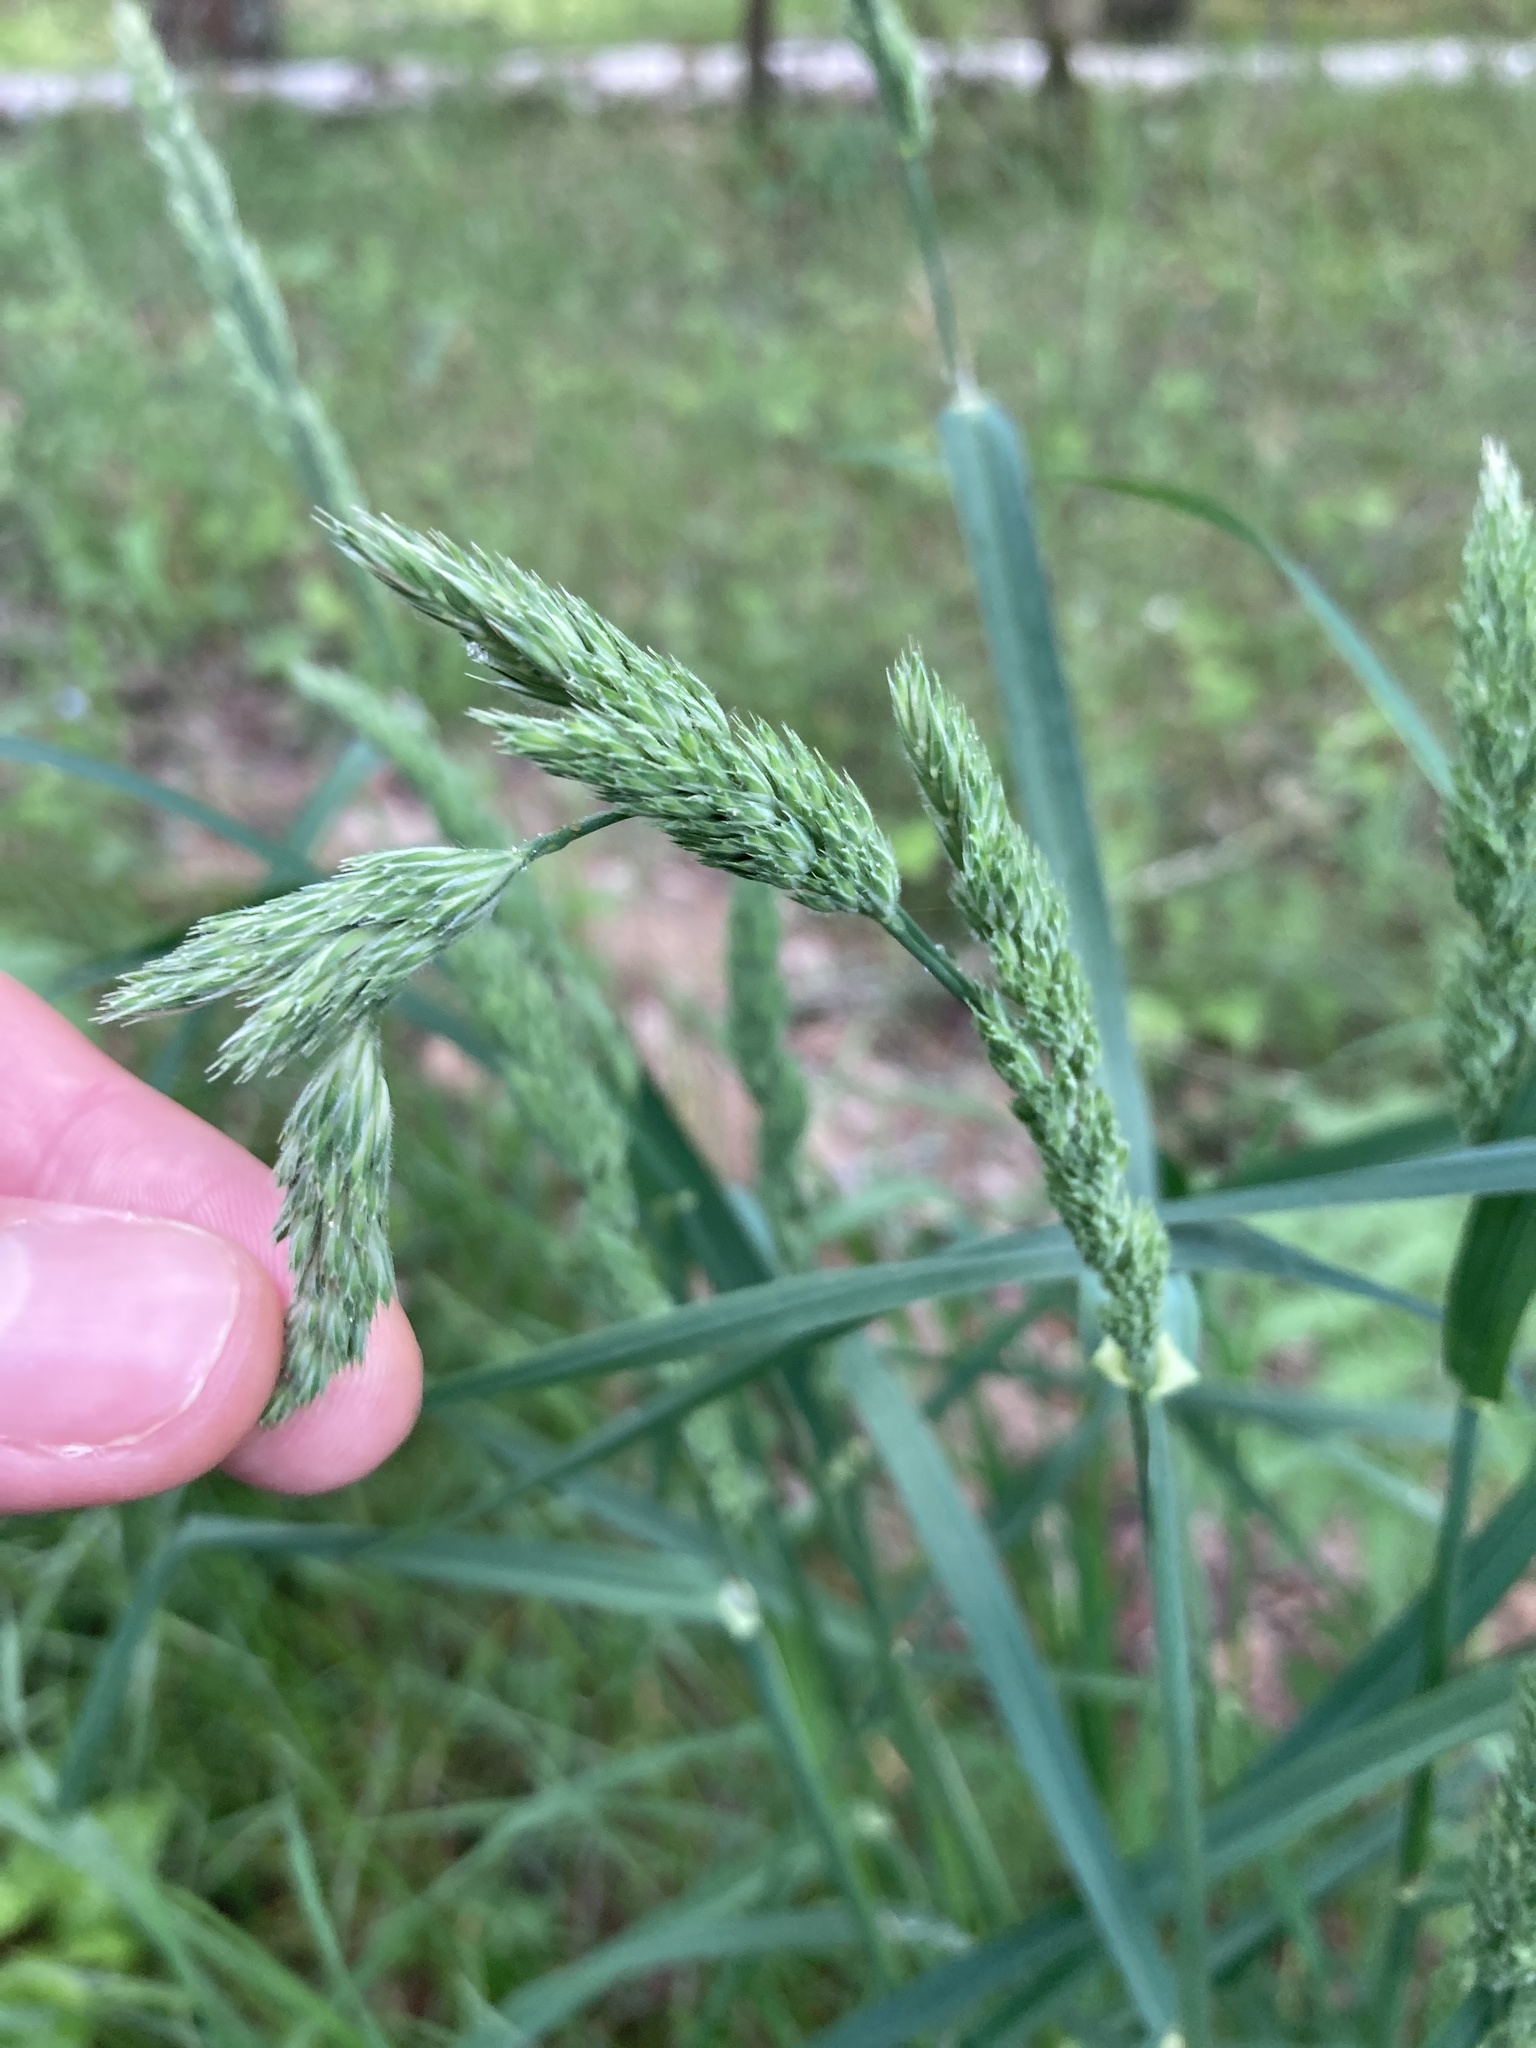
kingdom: Plantae
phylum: Tracheophyta
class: Liliopsida
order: Poales
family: Poaceae
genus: Dactylis
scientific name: Dactylis glomerata
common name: Orchardgrass
